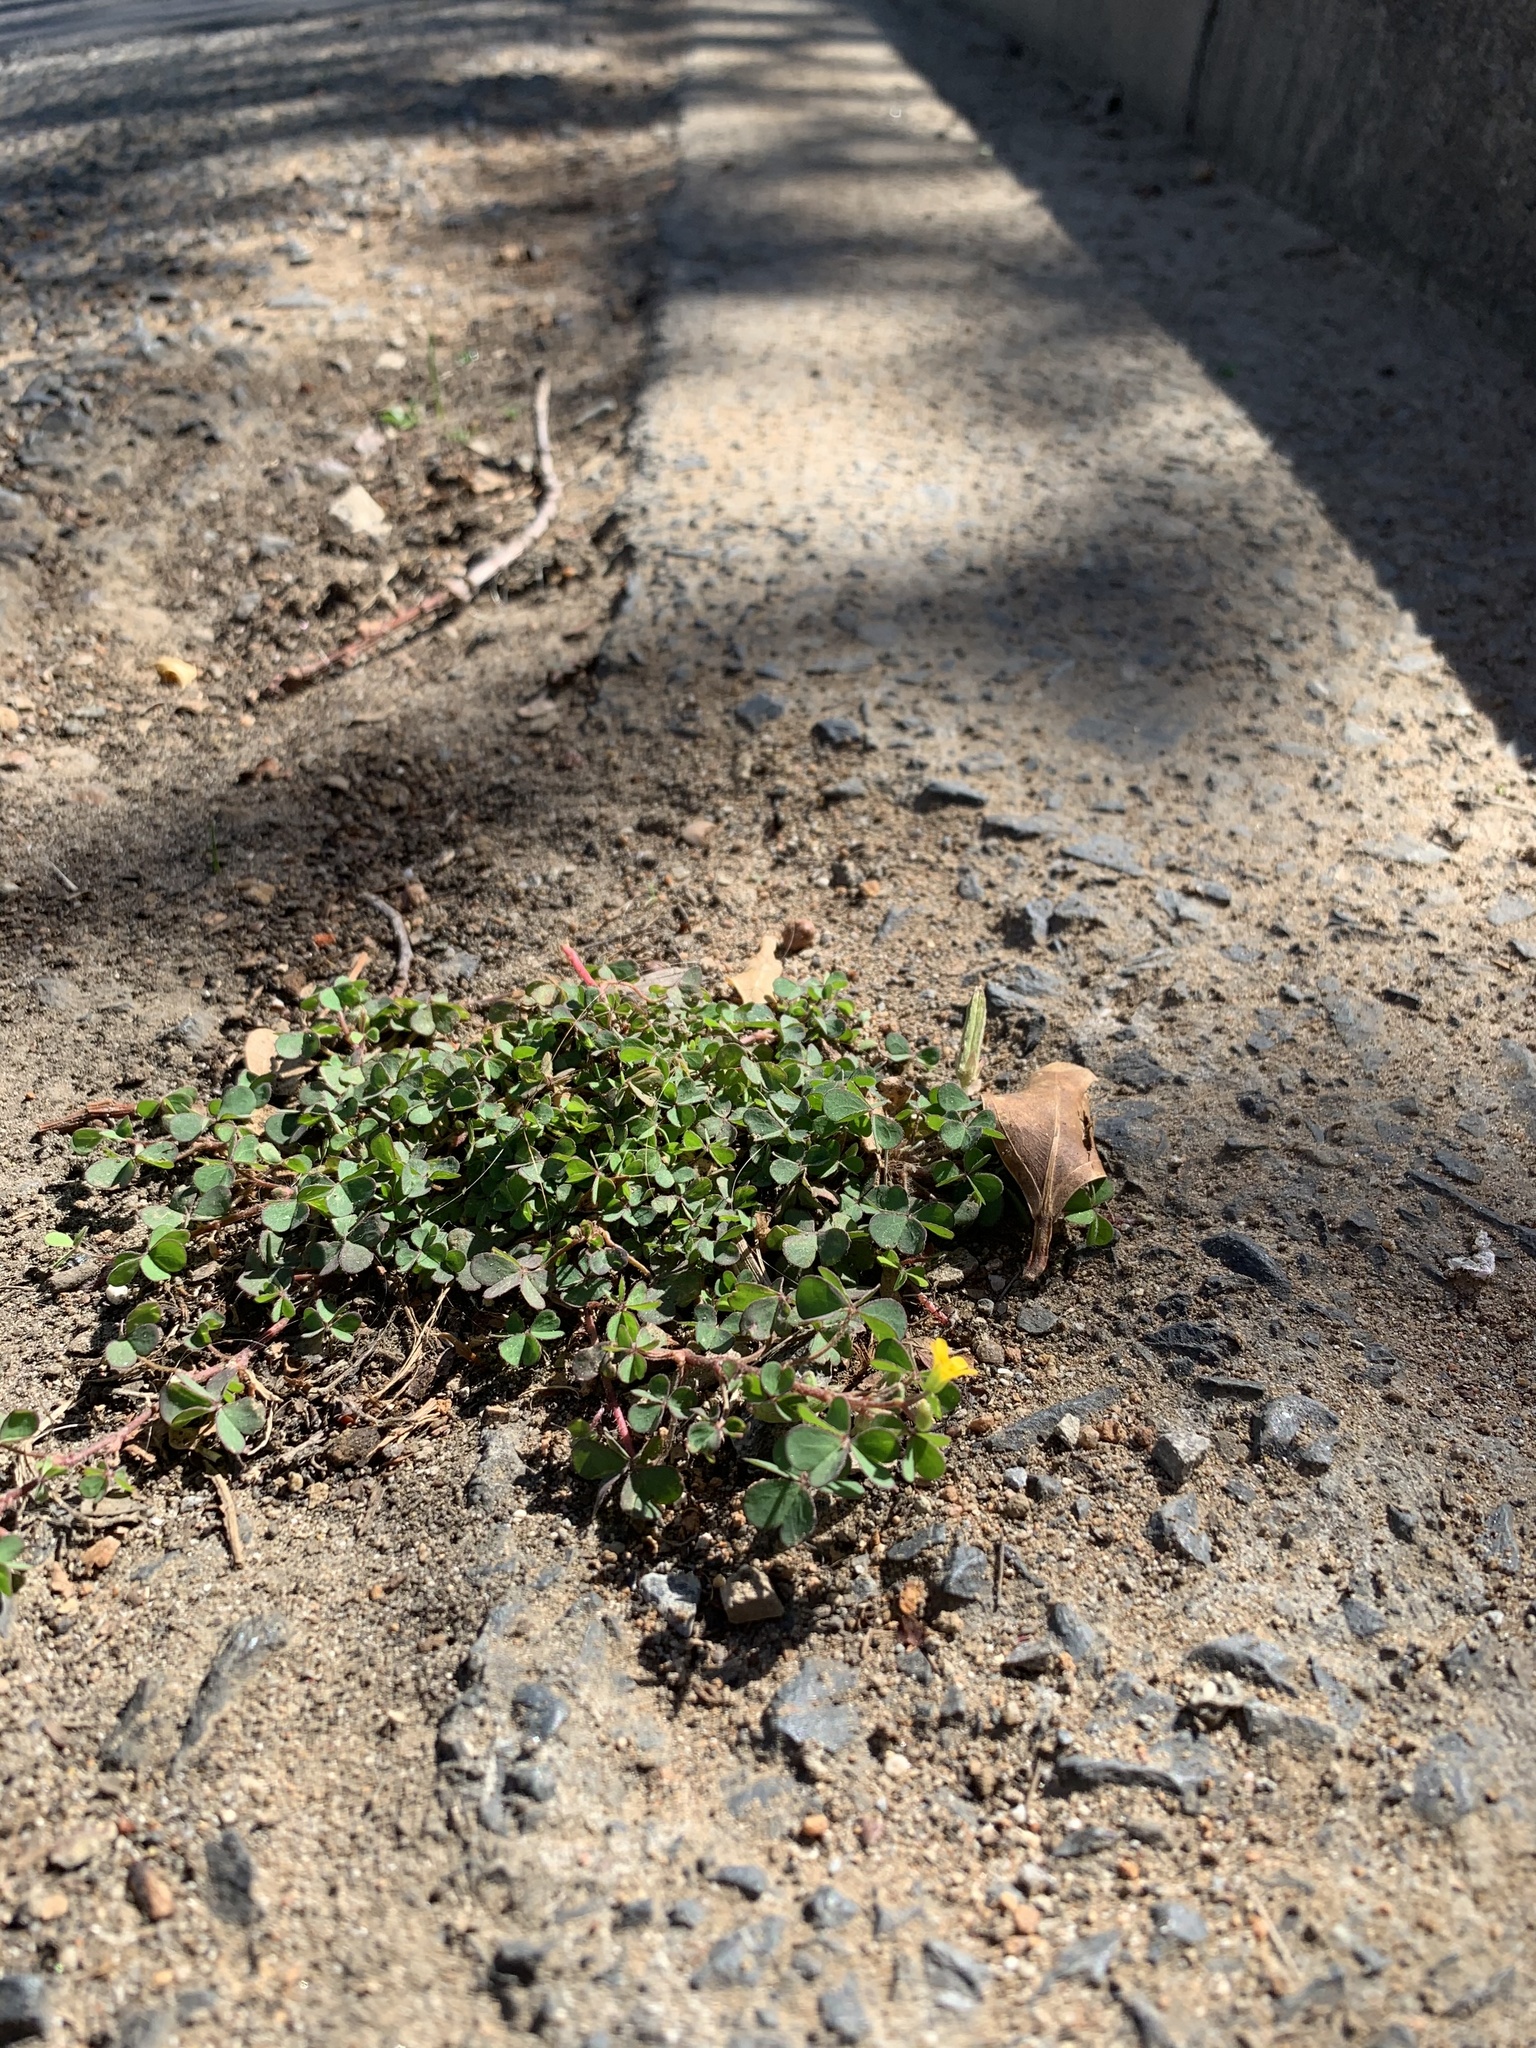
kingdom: Plantae
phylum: Tracheophyta
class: Magnoliopsida
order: Oxalidales
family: Oxalidaceae
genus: Oxalis
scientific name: Oxalis corniculata
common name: Procumbent yellow-sorrel
